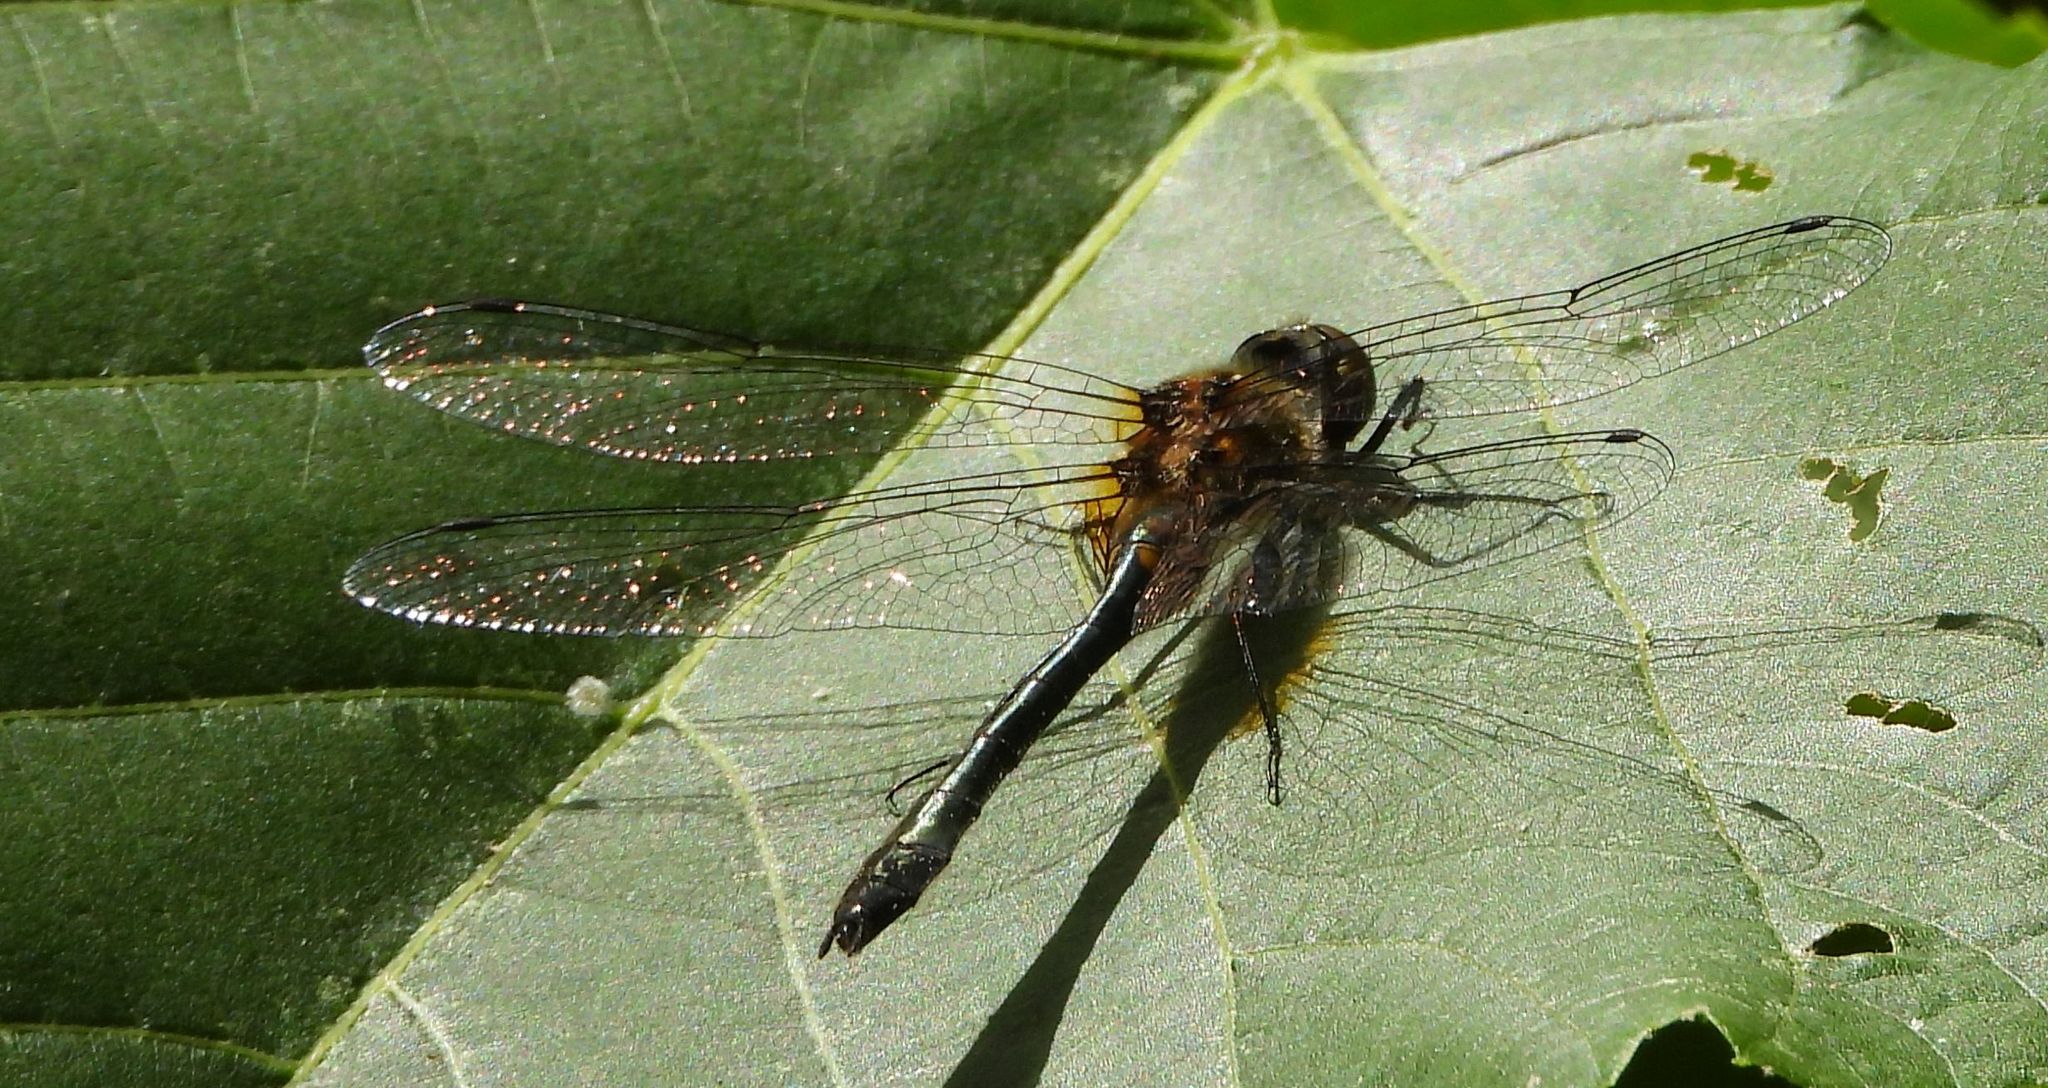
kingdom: Animalia
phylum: Arthropoda
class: Insecta
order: Odonata
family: Corduliidae
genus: Dorocordulia
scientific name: Dorocordulia libera
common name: Racket-tailed emerald
